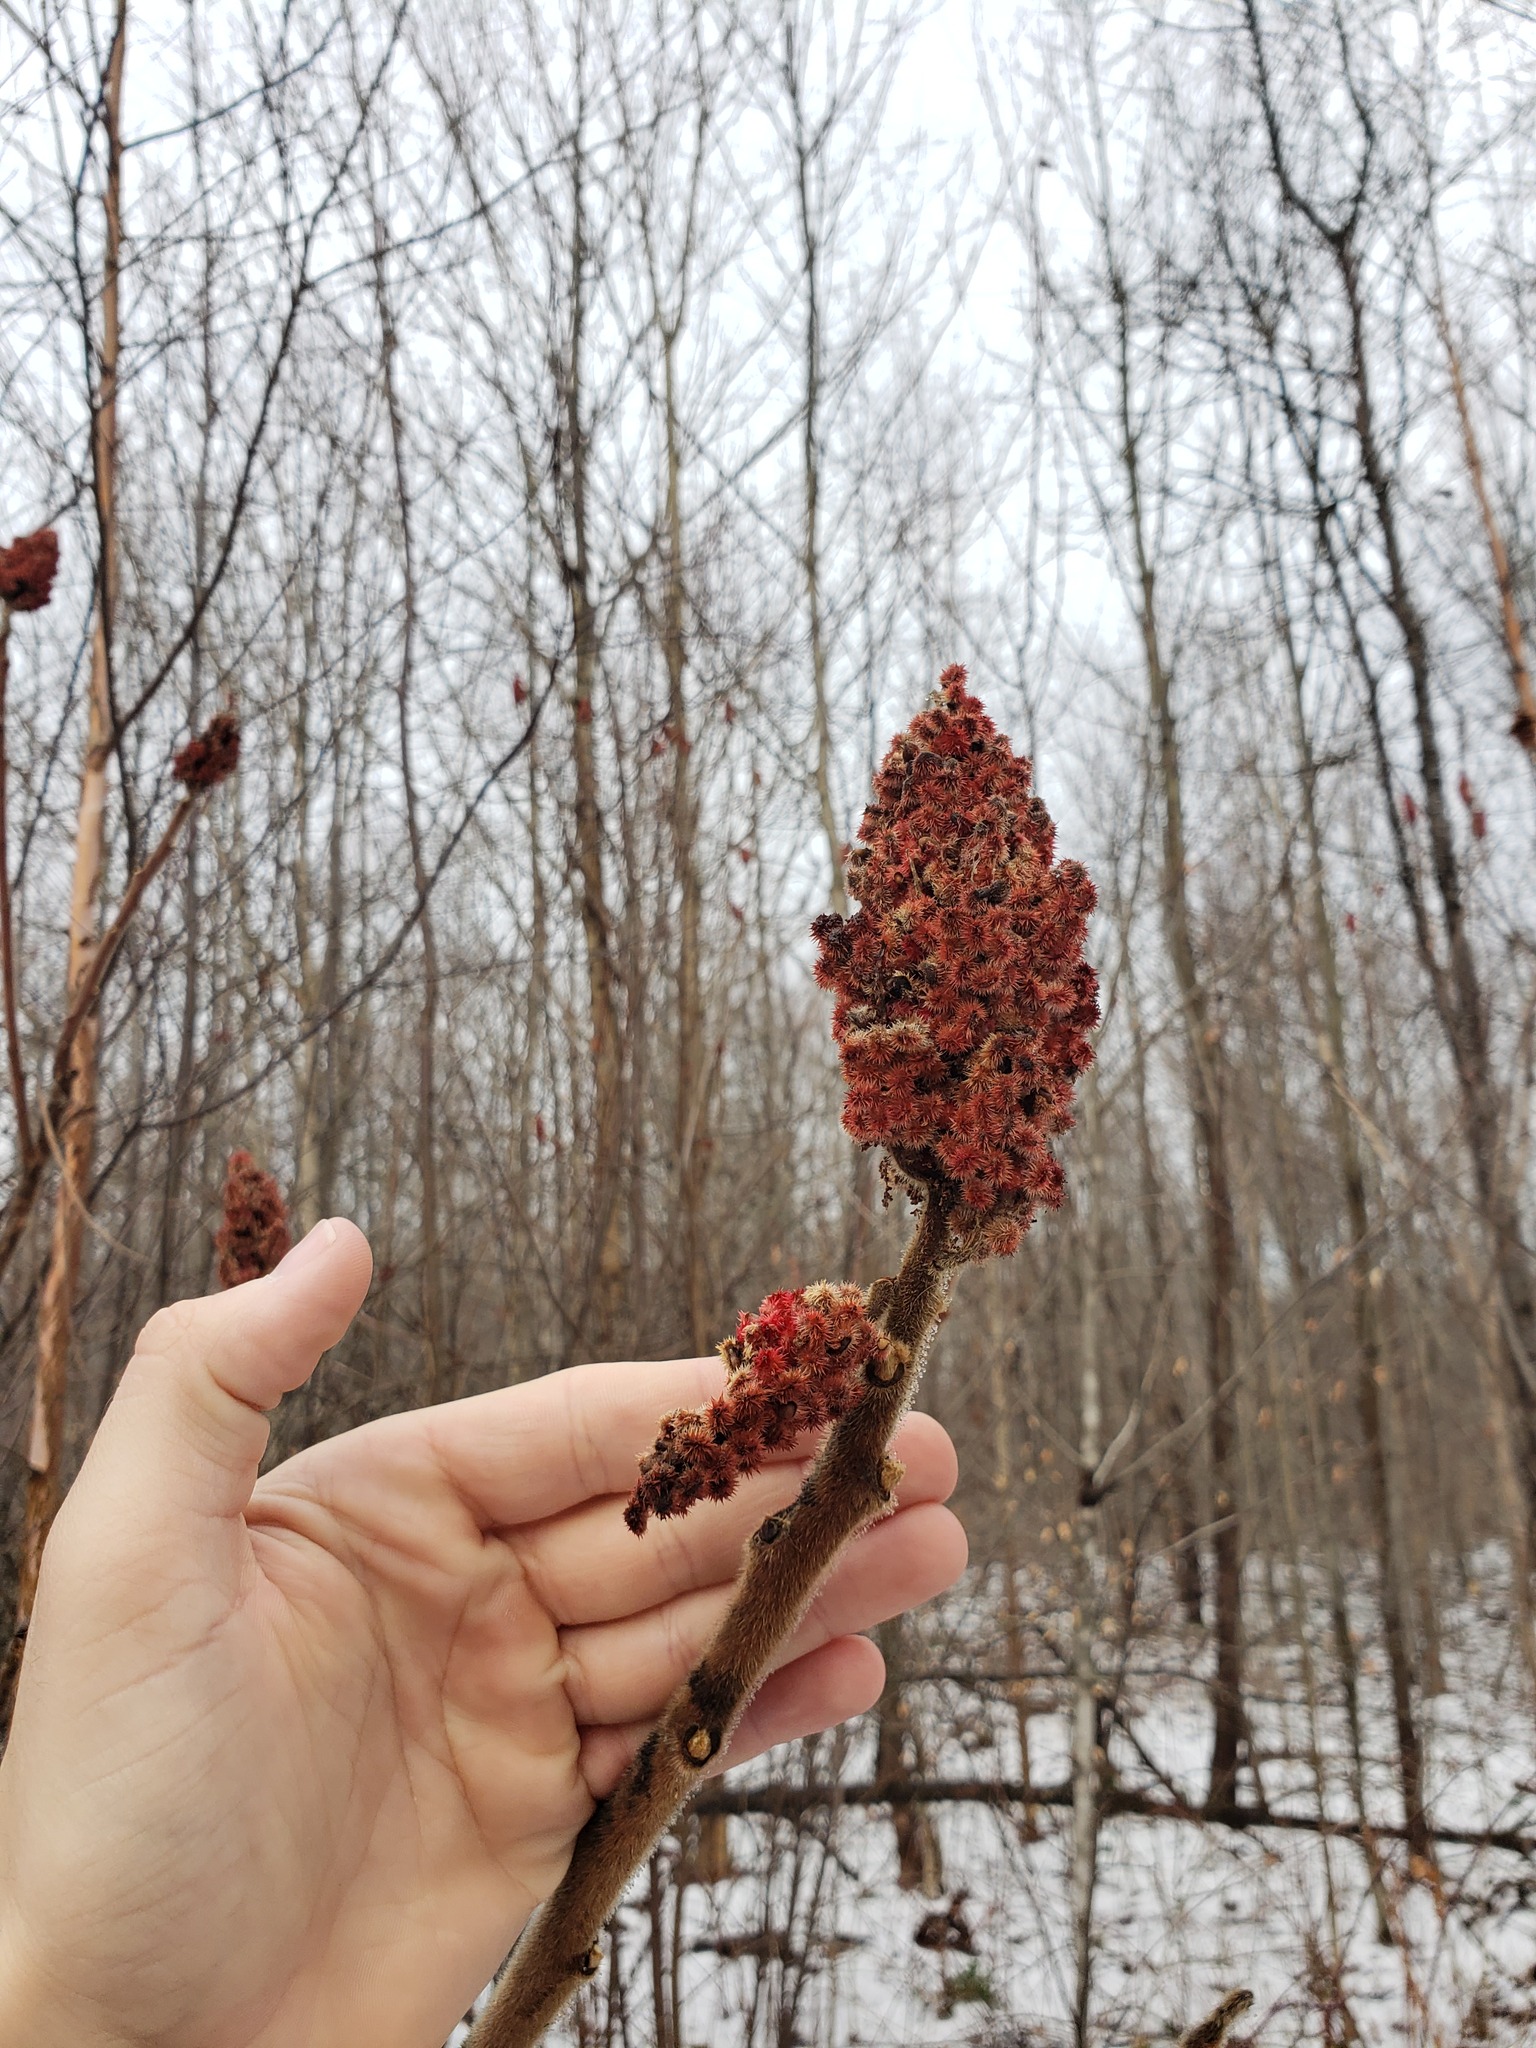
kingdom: Plantae
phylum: Tracheophyta
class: Magnoliopsida
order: Sapindales
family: Anacardiaceae
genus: Rhus
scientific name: Rhus typhina
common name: Staghorn sumac
